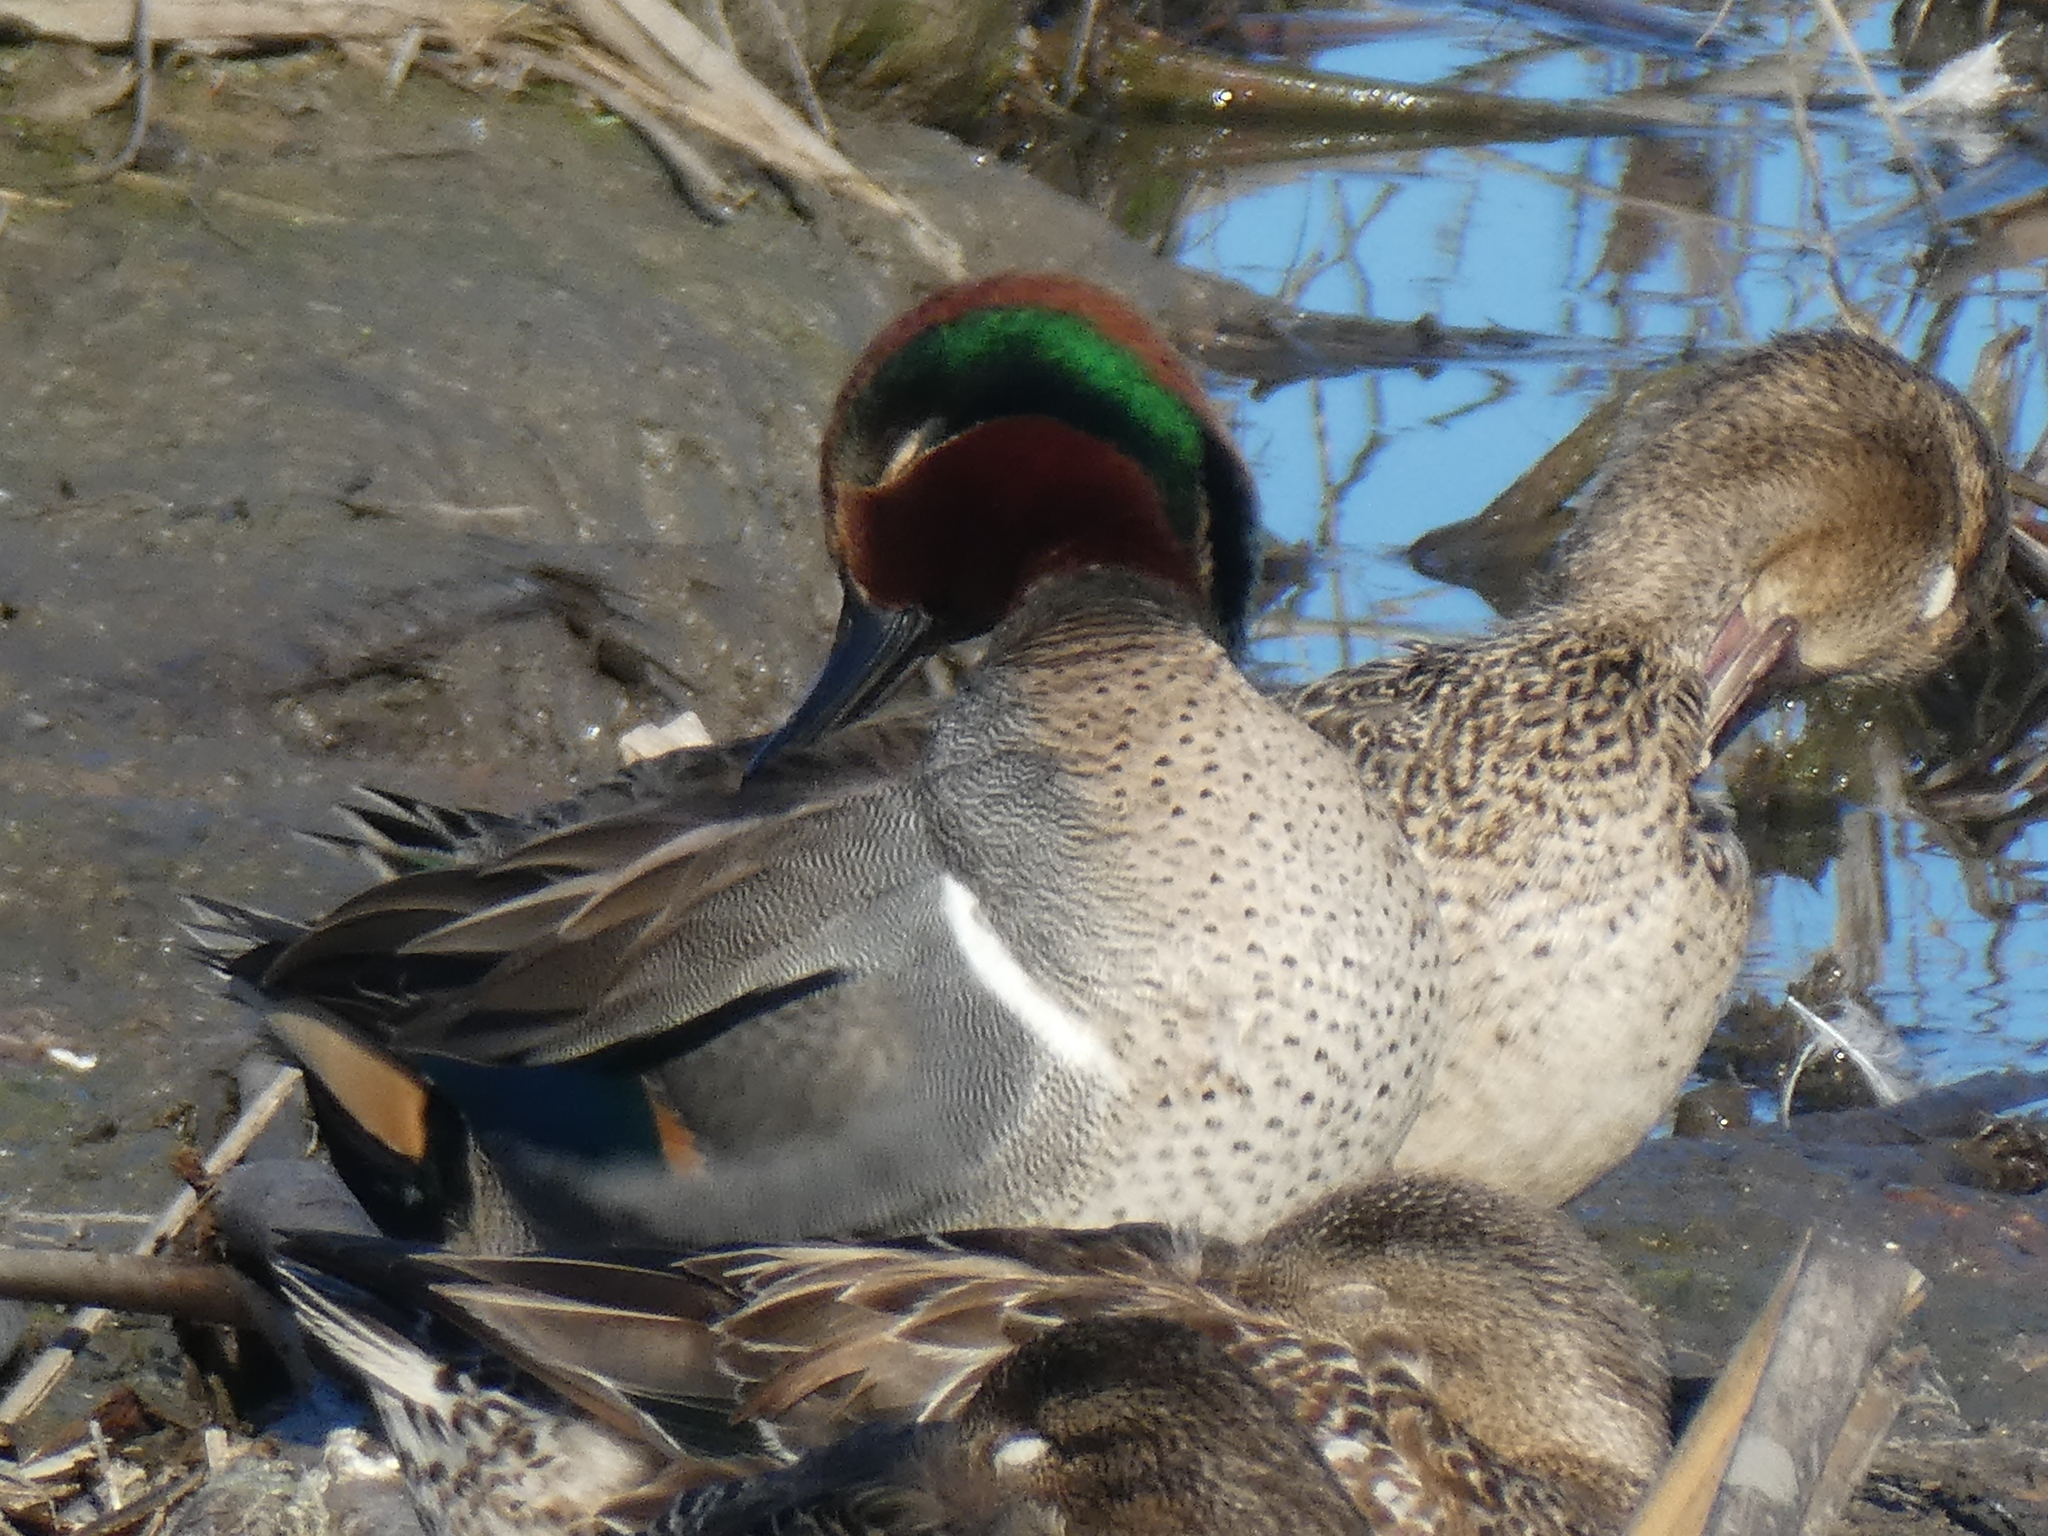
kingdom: Animalia
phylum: Chordata
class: Aves
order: Anseriformes
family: Anatidae
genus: Anas
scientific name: Anas crecca
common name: Eurasian teal
